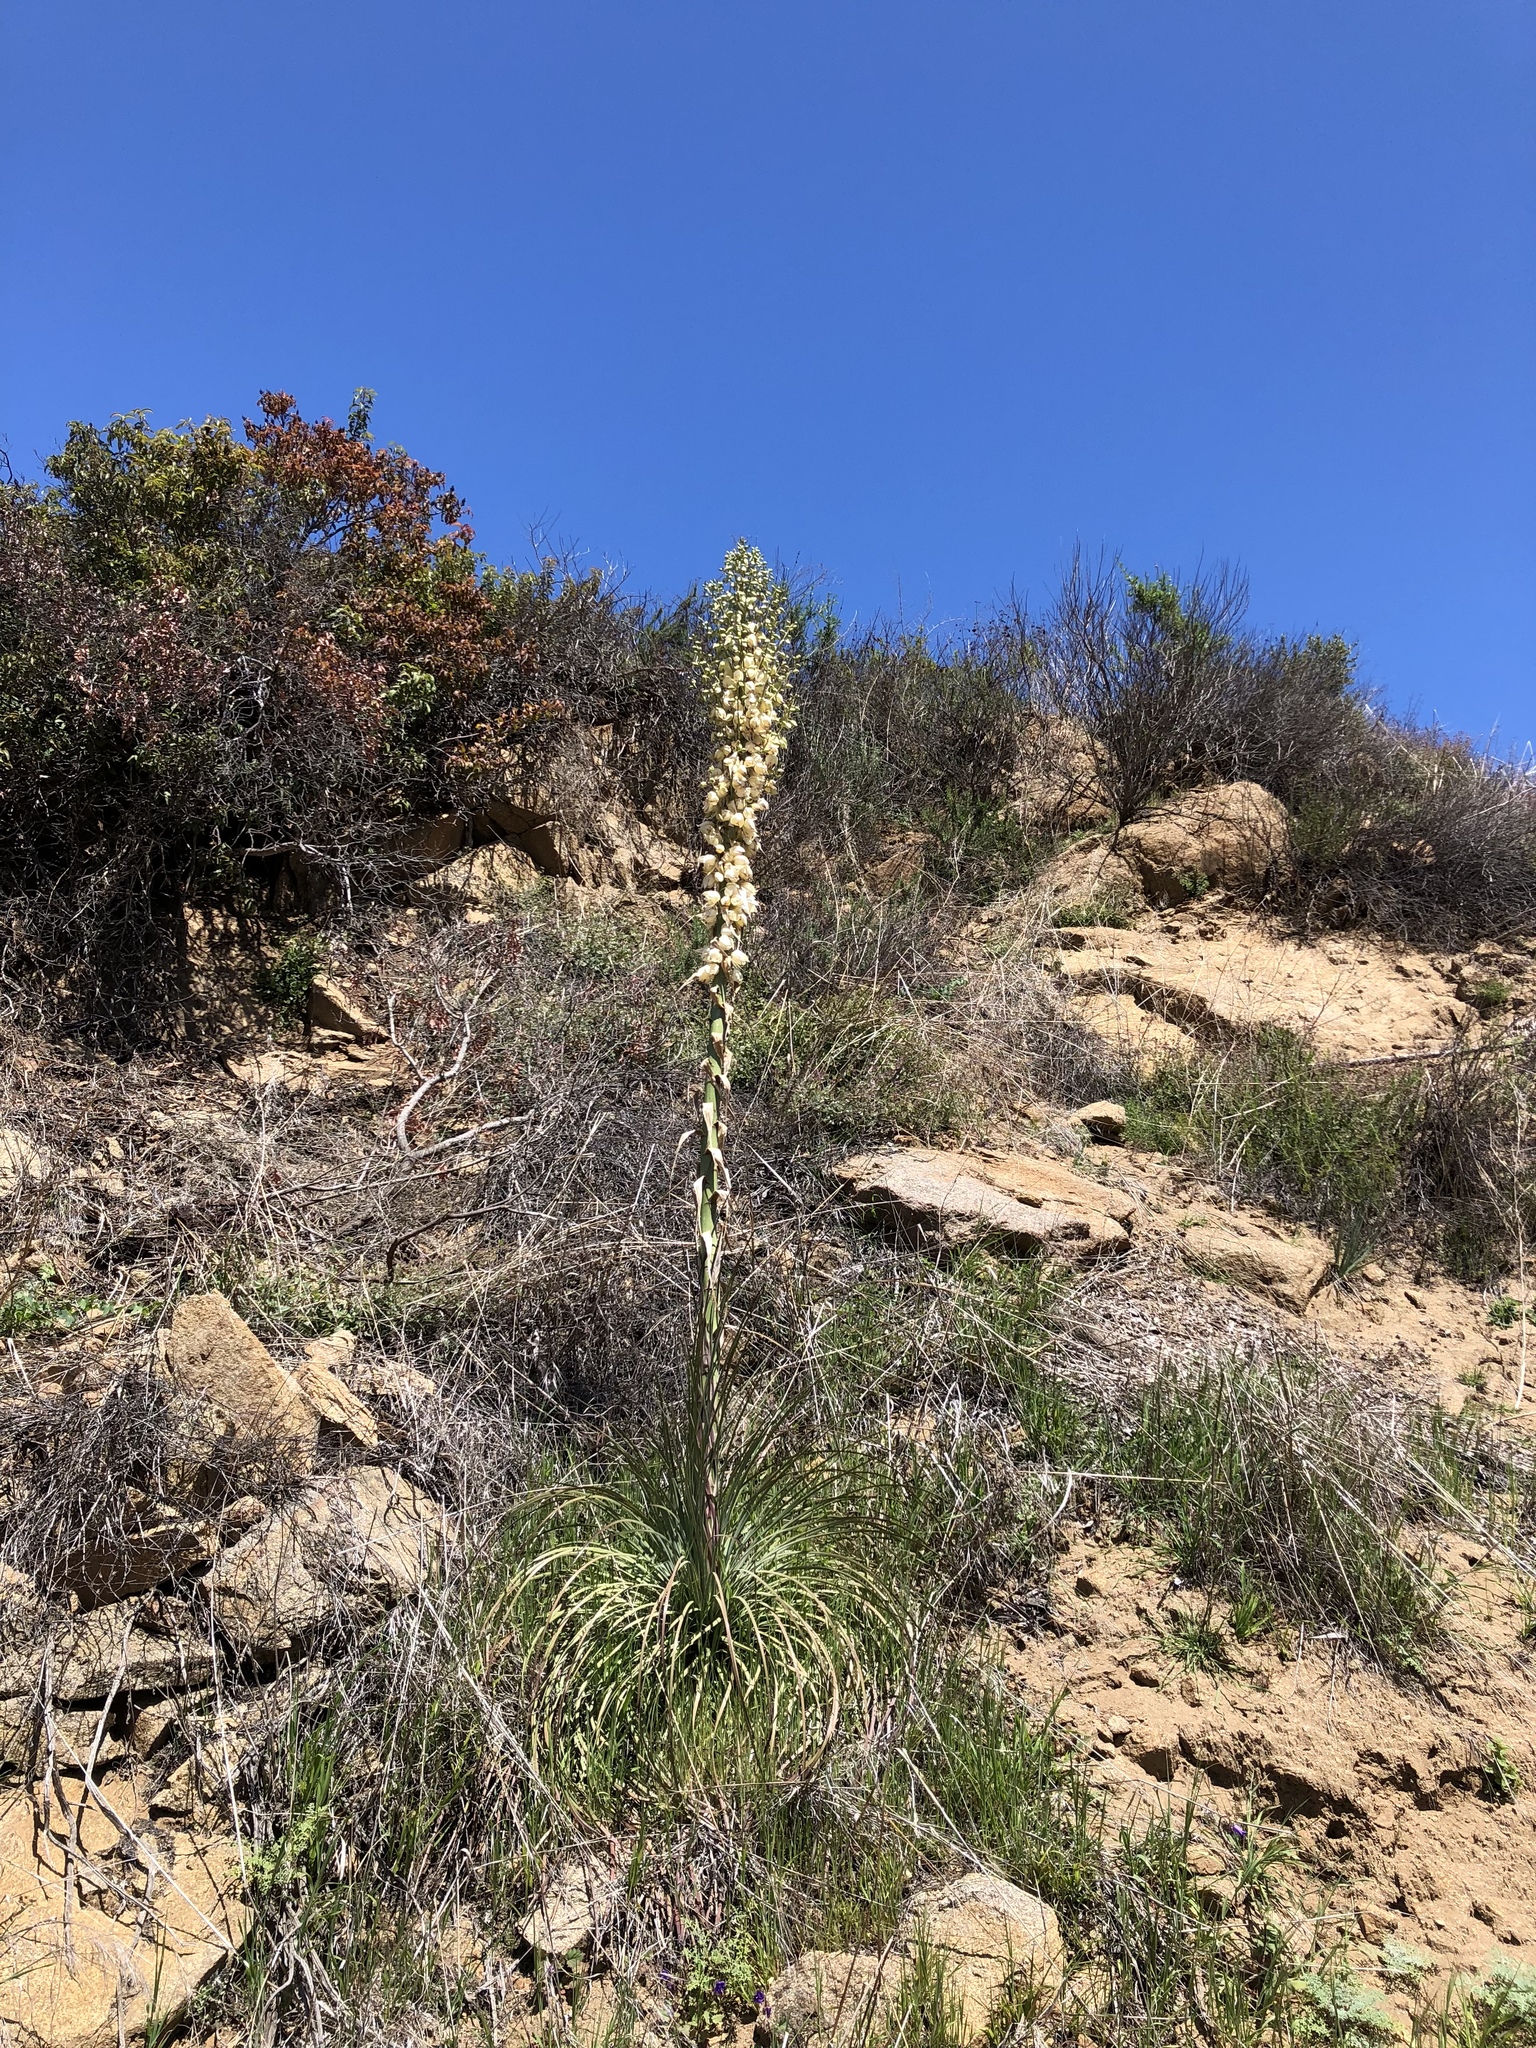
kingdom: Plantae
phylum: Tracheophyta
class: Liliopsida
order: Asparagales
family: Asparagaceae
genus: Hesperoyucca
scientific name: Hesperoyucca whipplei
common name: Our lord's-candle
